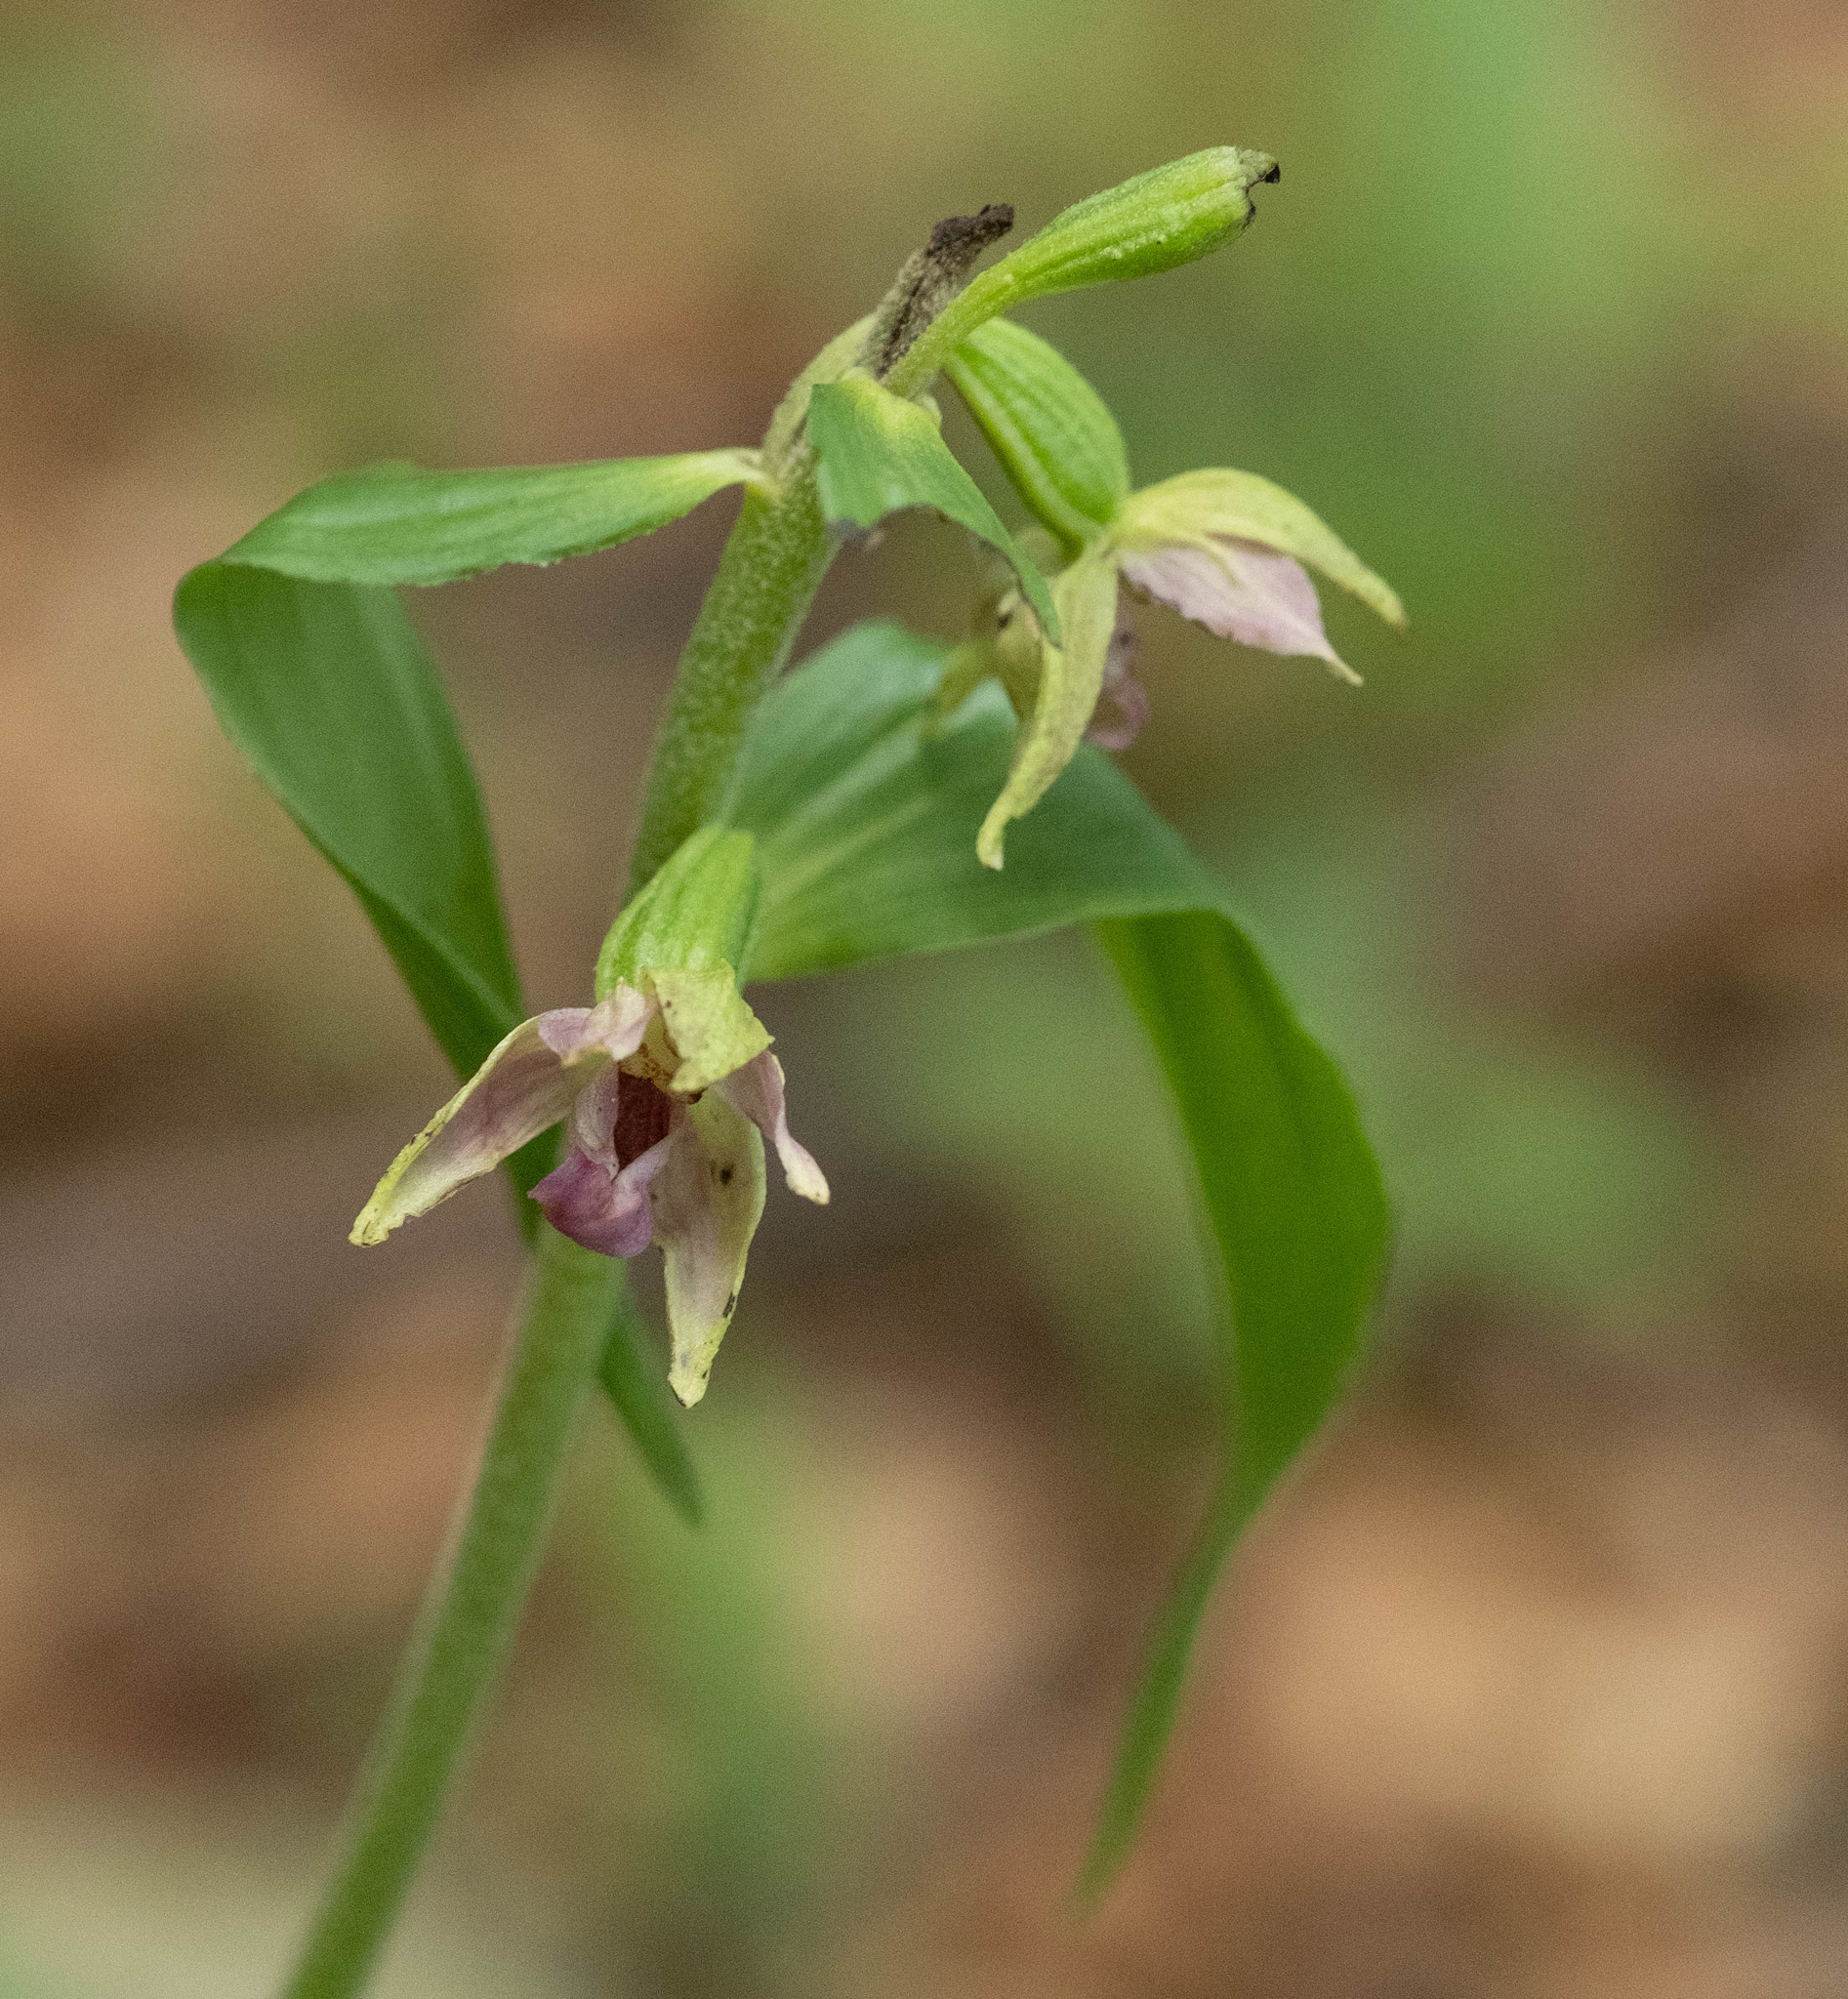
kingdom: Plantae
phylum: Tracheophyta
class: Liliopsida
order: Asparagales
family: Orchidaceae
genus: Epipactis
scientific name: Epipactis leptochila
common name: Narrow-lipped helleborine
